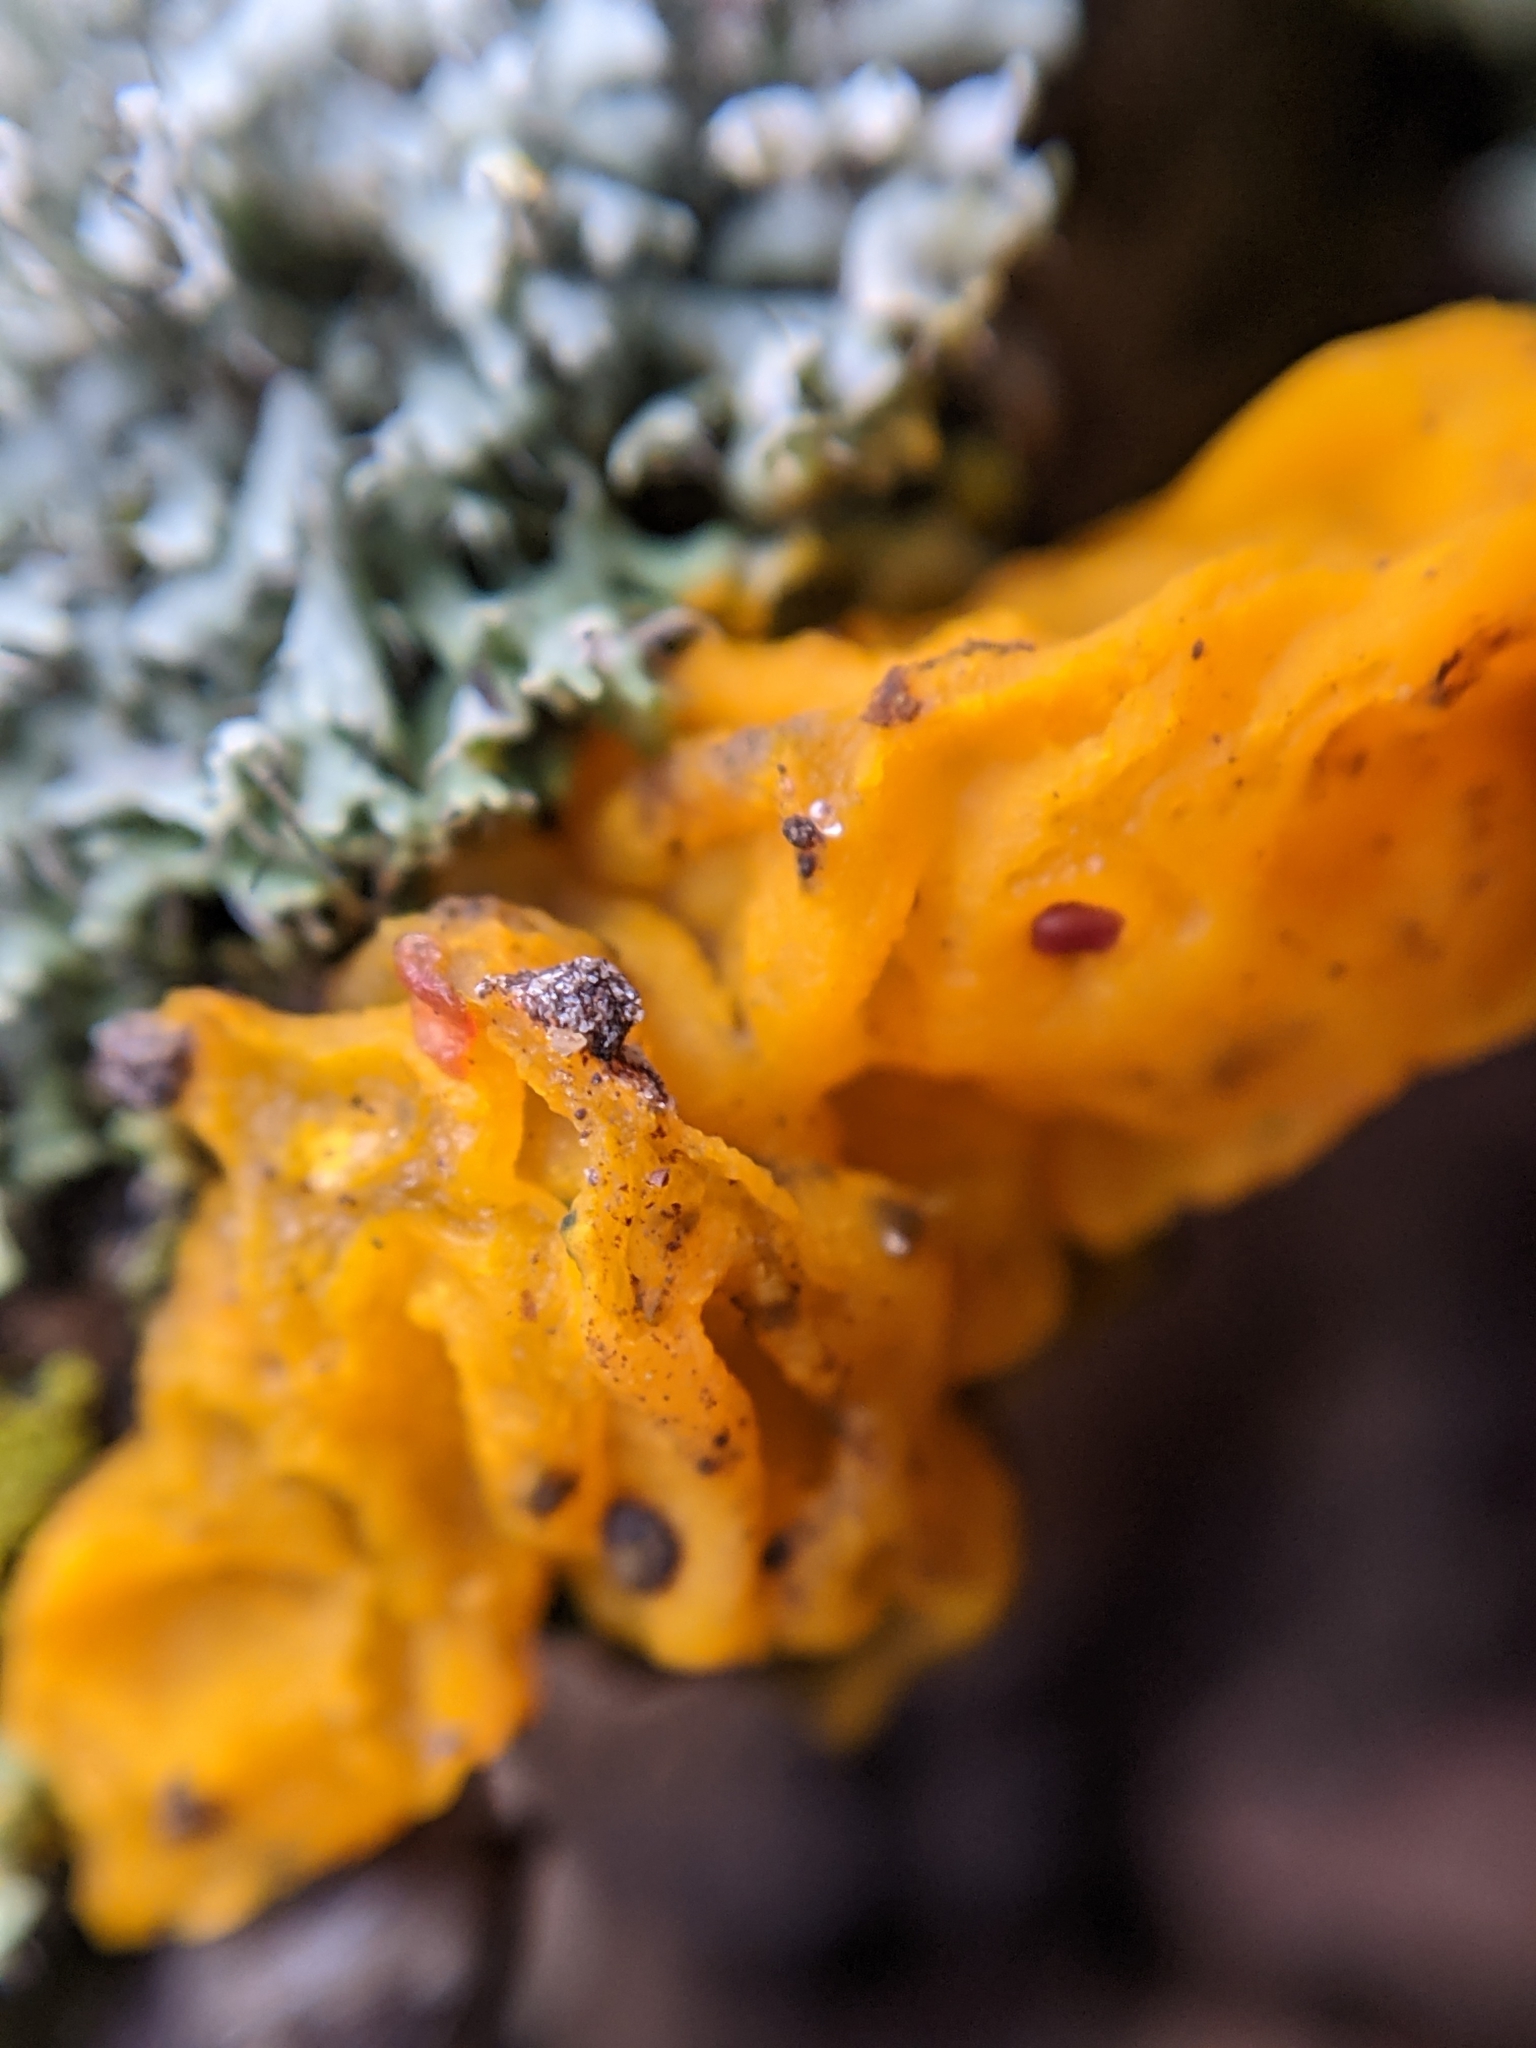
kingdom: Fungi
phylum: Basidiomycota
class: Tremellomycetes
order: Tremellales
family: Tremellaceae
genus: Tremella
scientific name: Tremella mesenterica
